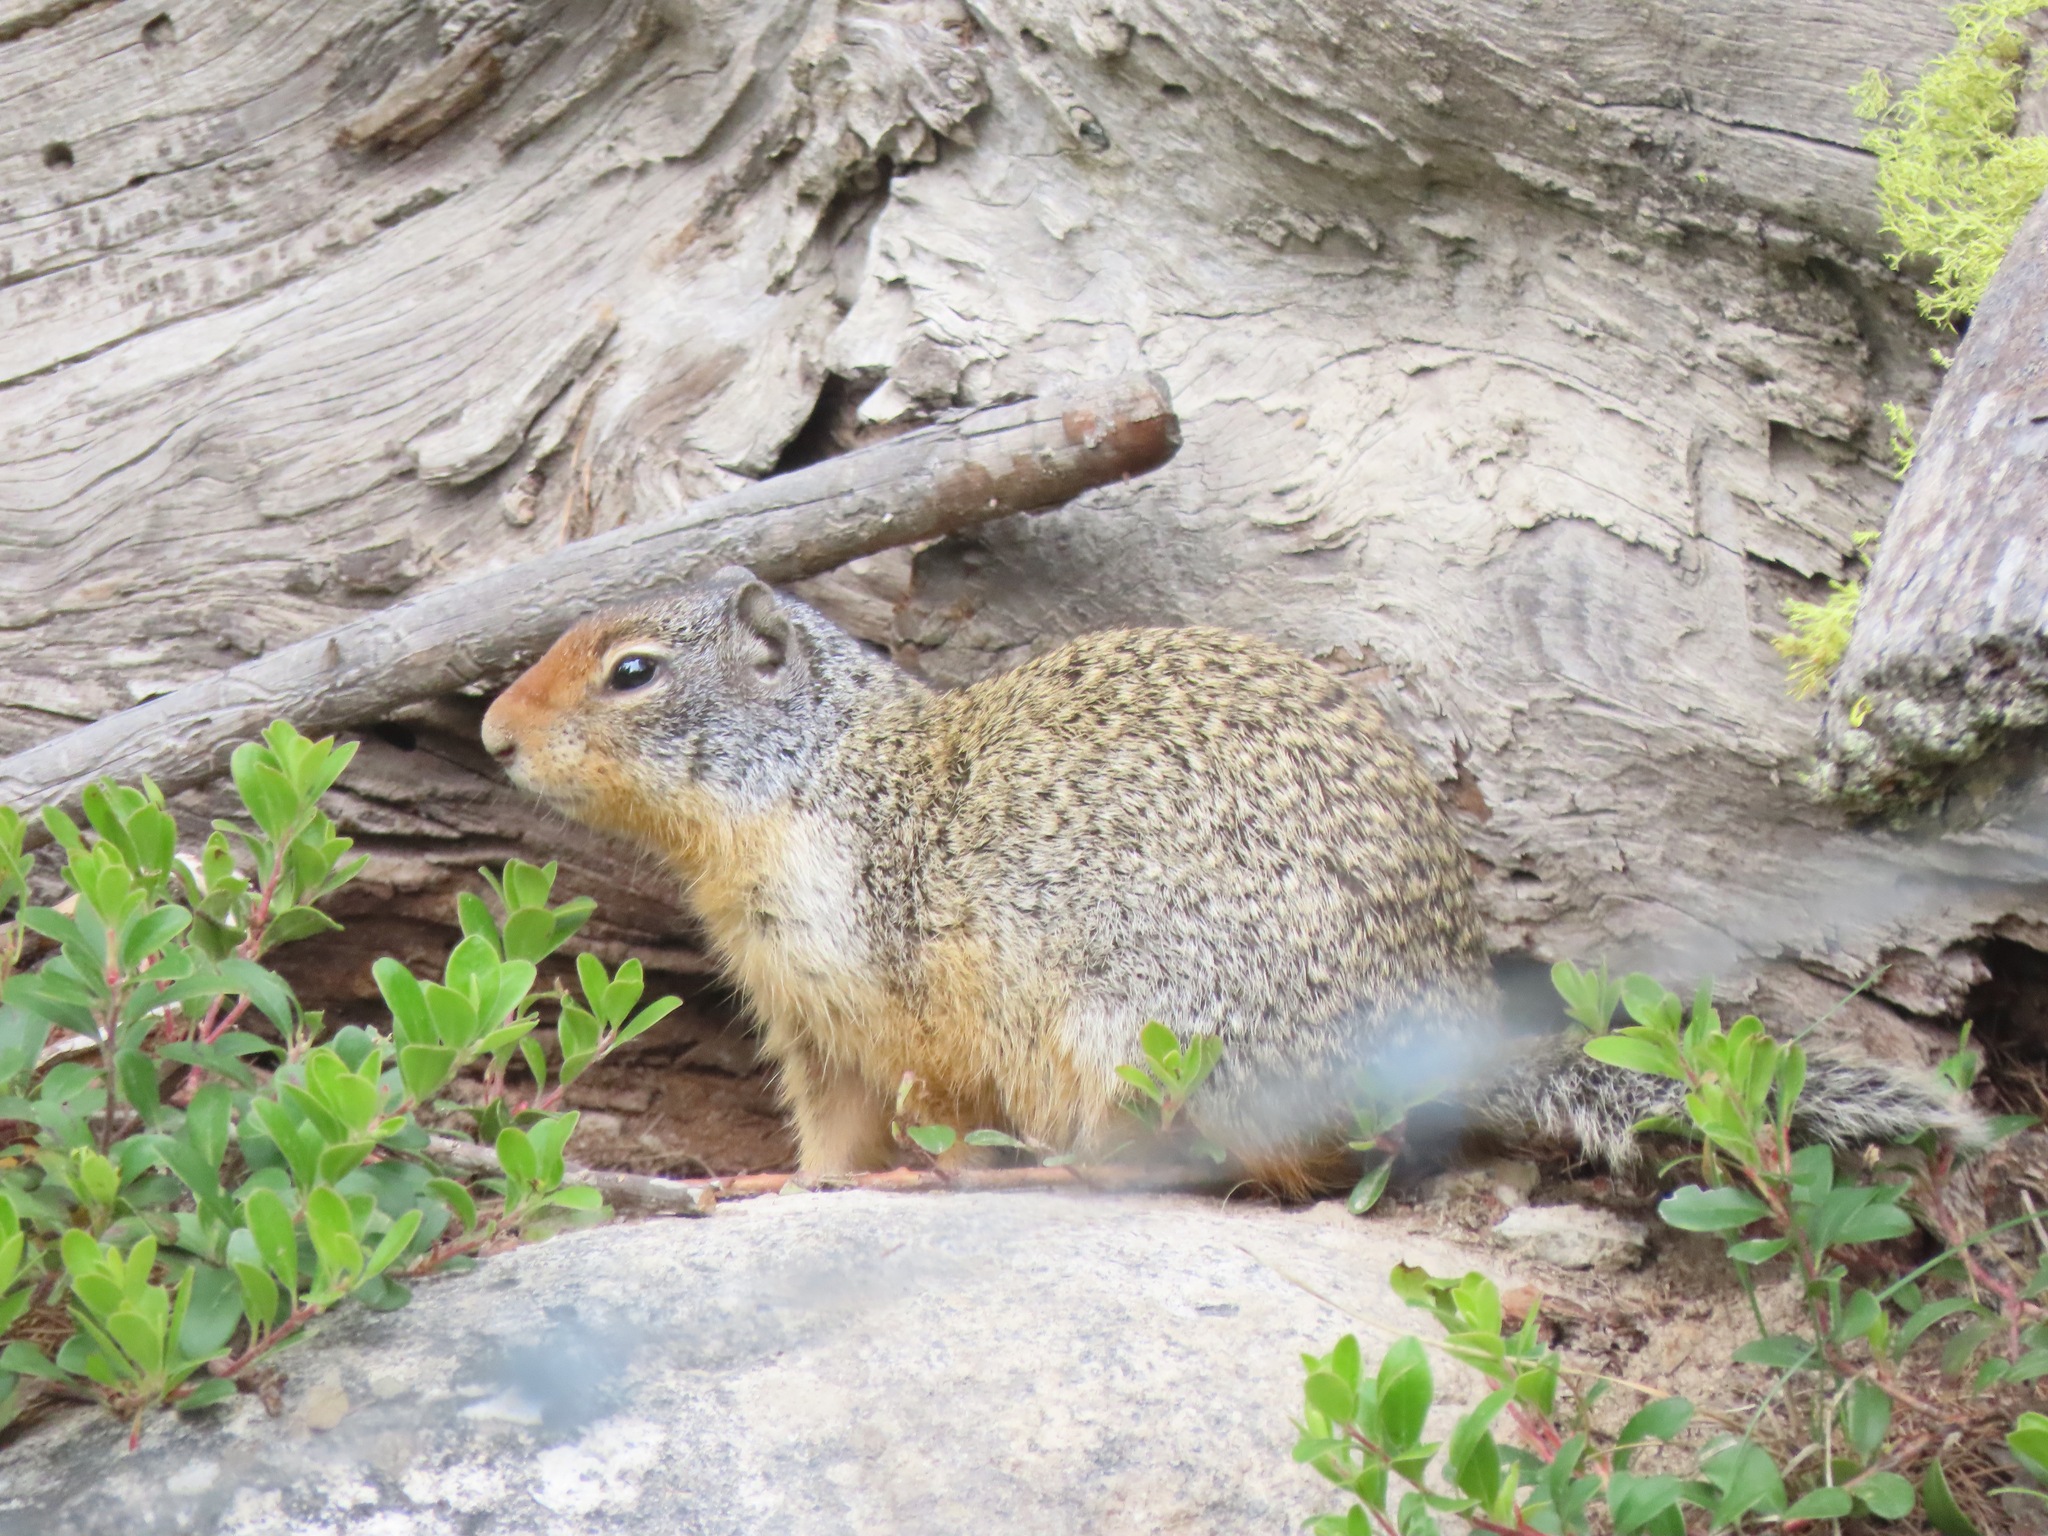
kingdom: Animalia
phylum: Chordata
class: Mammalia
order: Rodentia
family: Sciuridae
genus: Urocitellus
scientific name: Urocitellus columbianus
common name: Columbian ground squirrel
